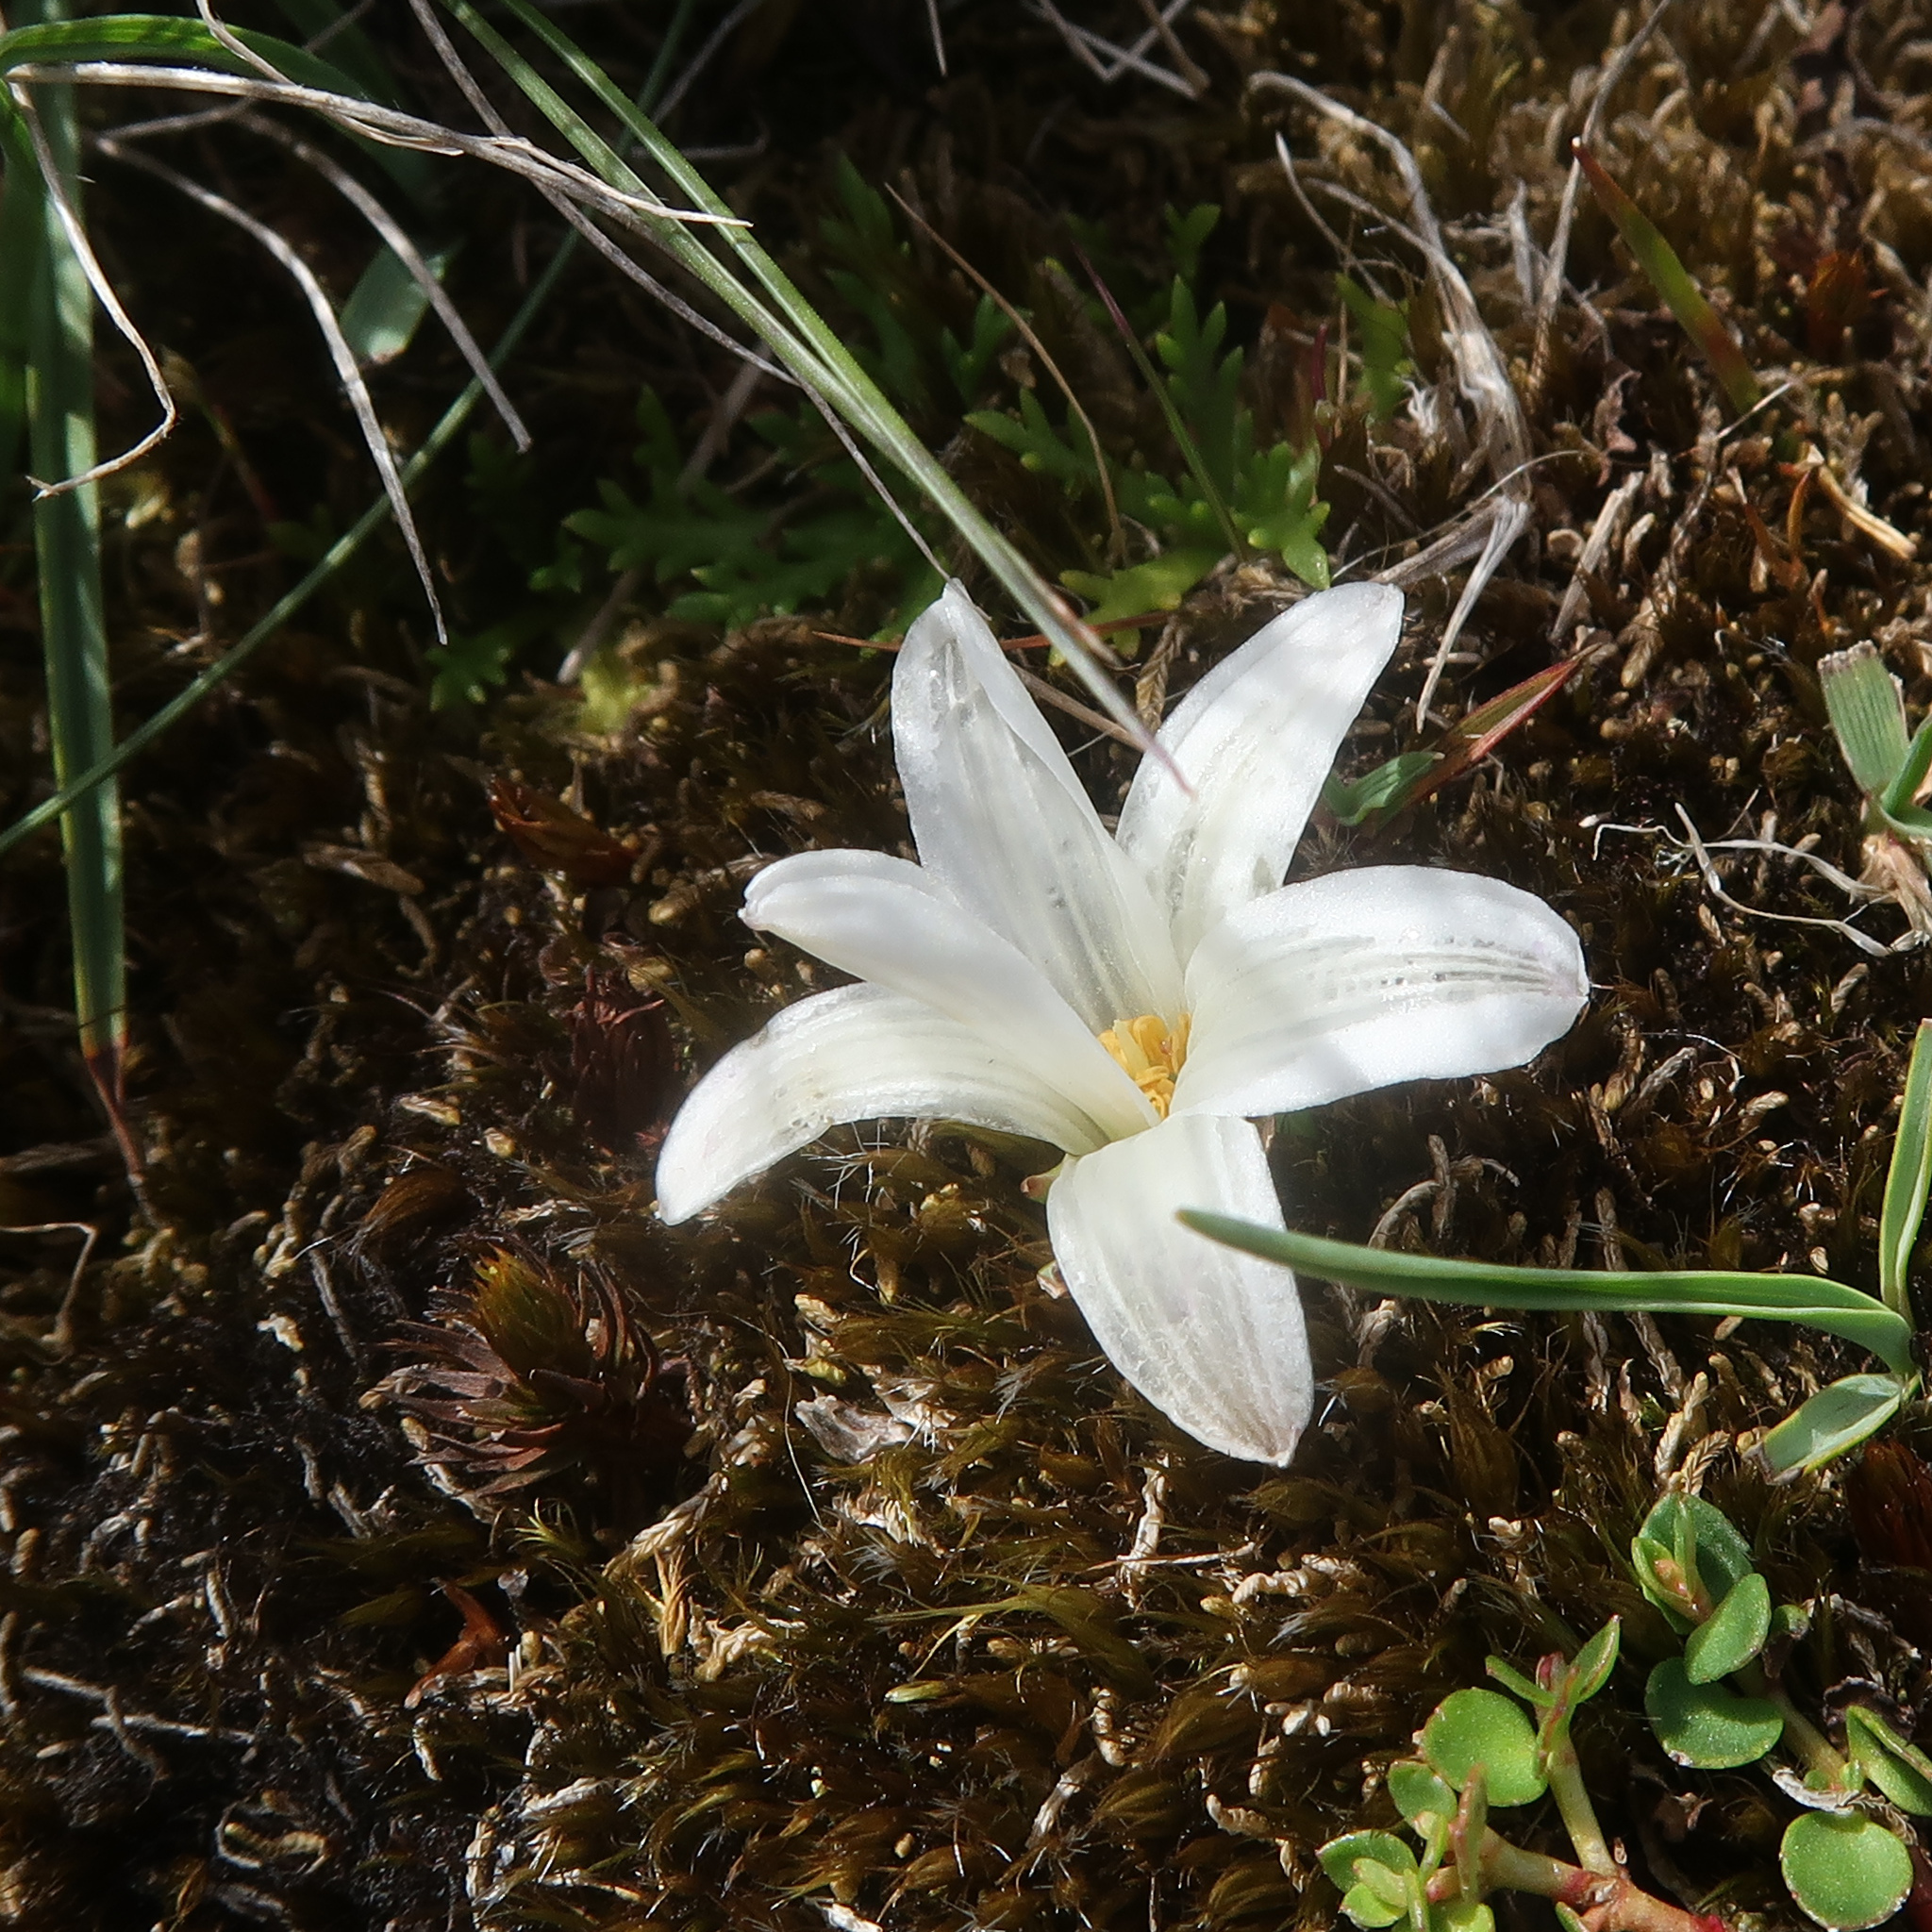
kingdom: Plantae
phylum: Tracheophyta
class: Liliopsida
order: Asparagales
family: Asphodelaceae
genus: Herpolirion
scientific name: Herpolirion novae-zelandiae
